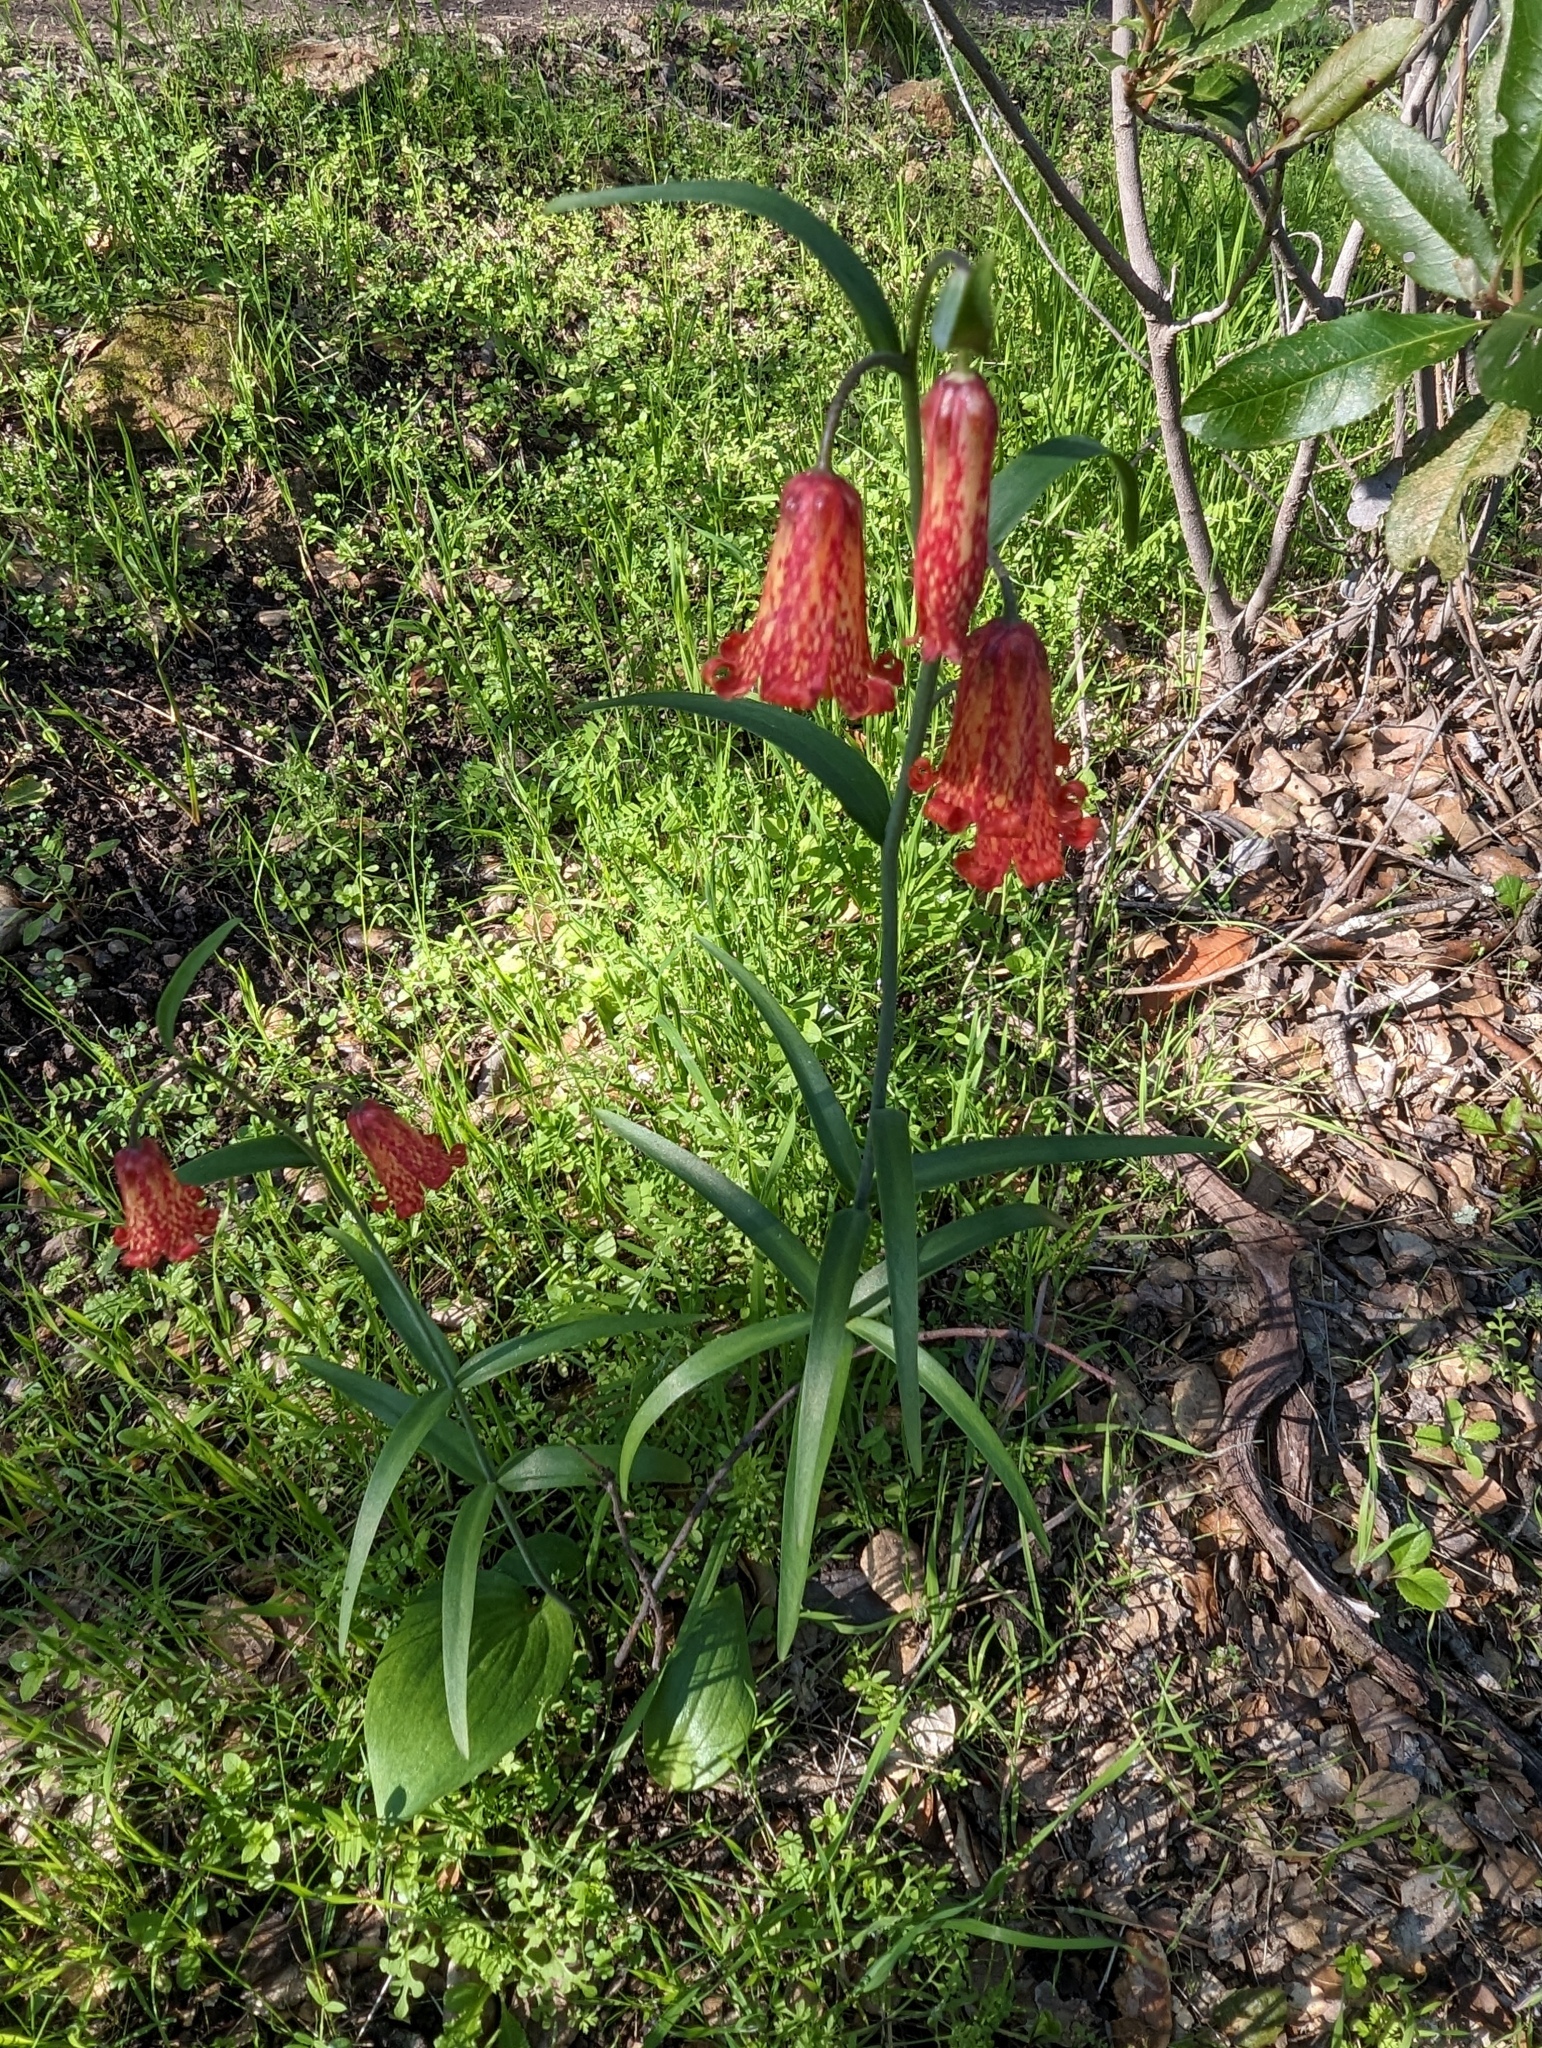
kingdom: Plantae
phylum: Tracheophyta
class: Liliopsida
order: Liliales
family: Liliaceae
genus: Fritillaria
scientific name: Fritillaria recurva
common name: Scarlet fritillary
